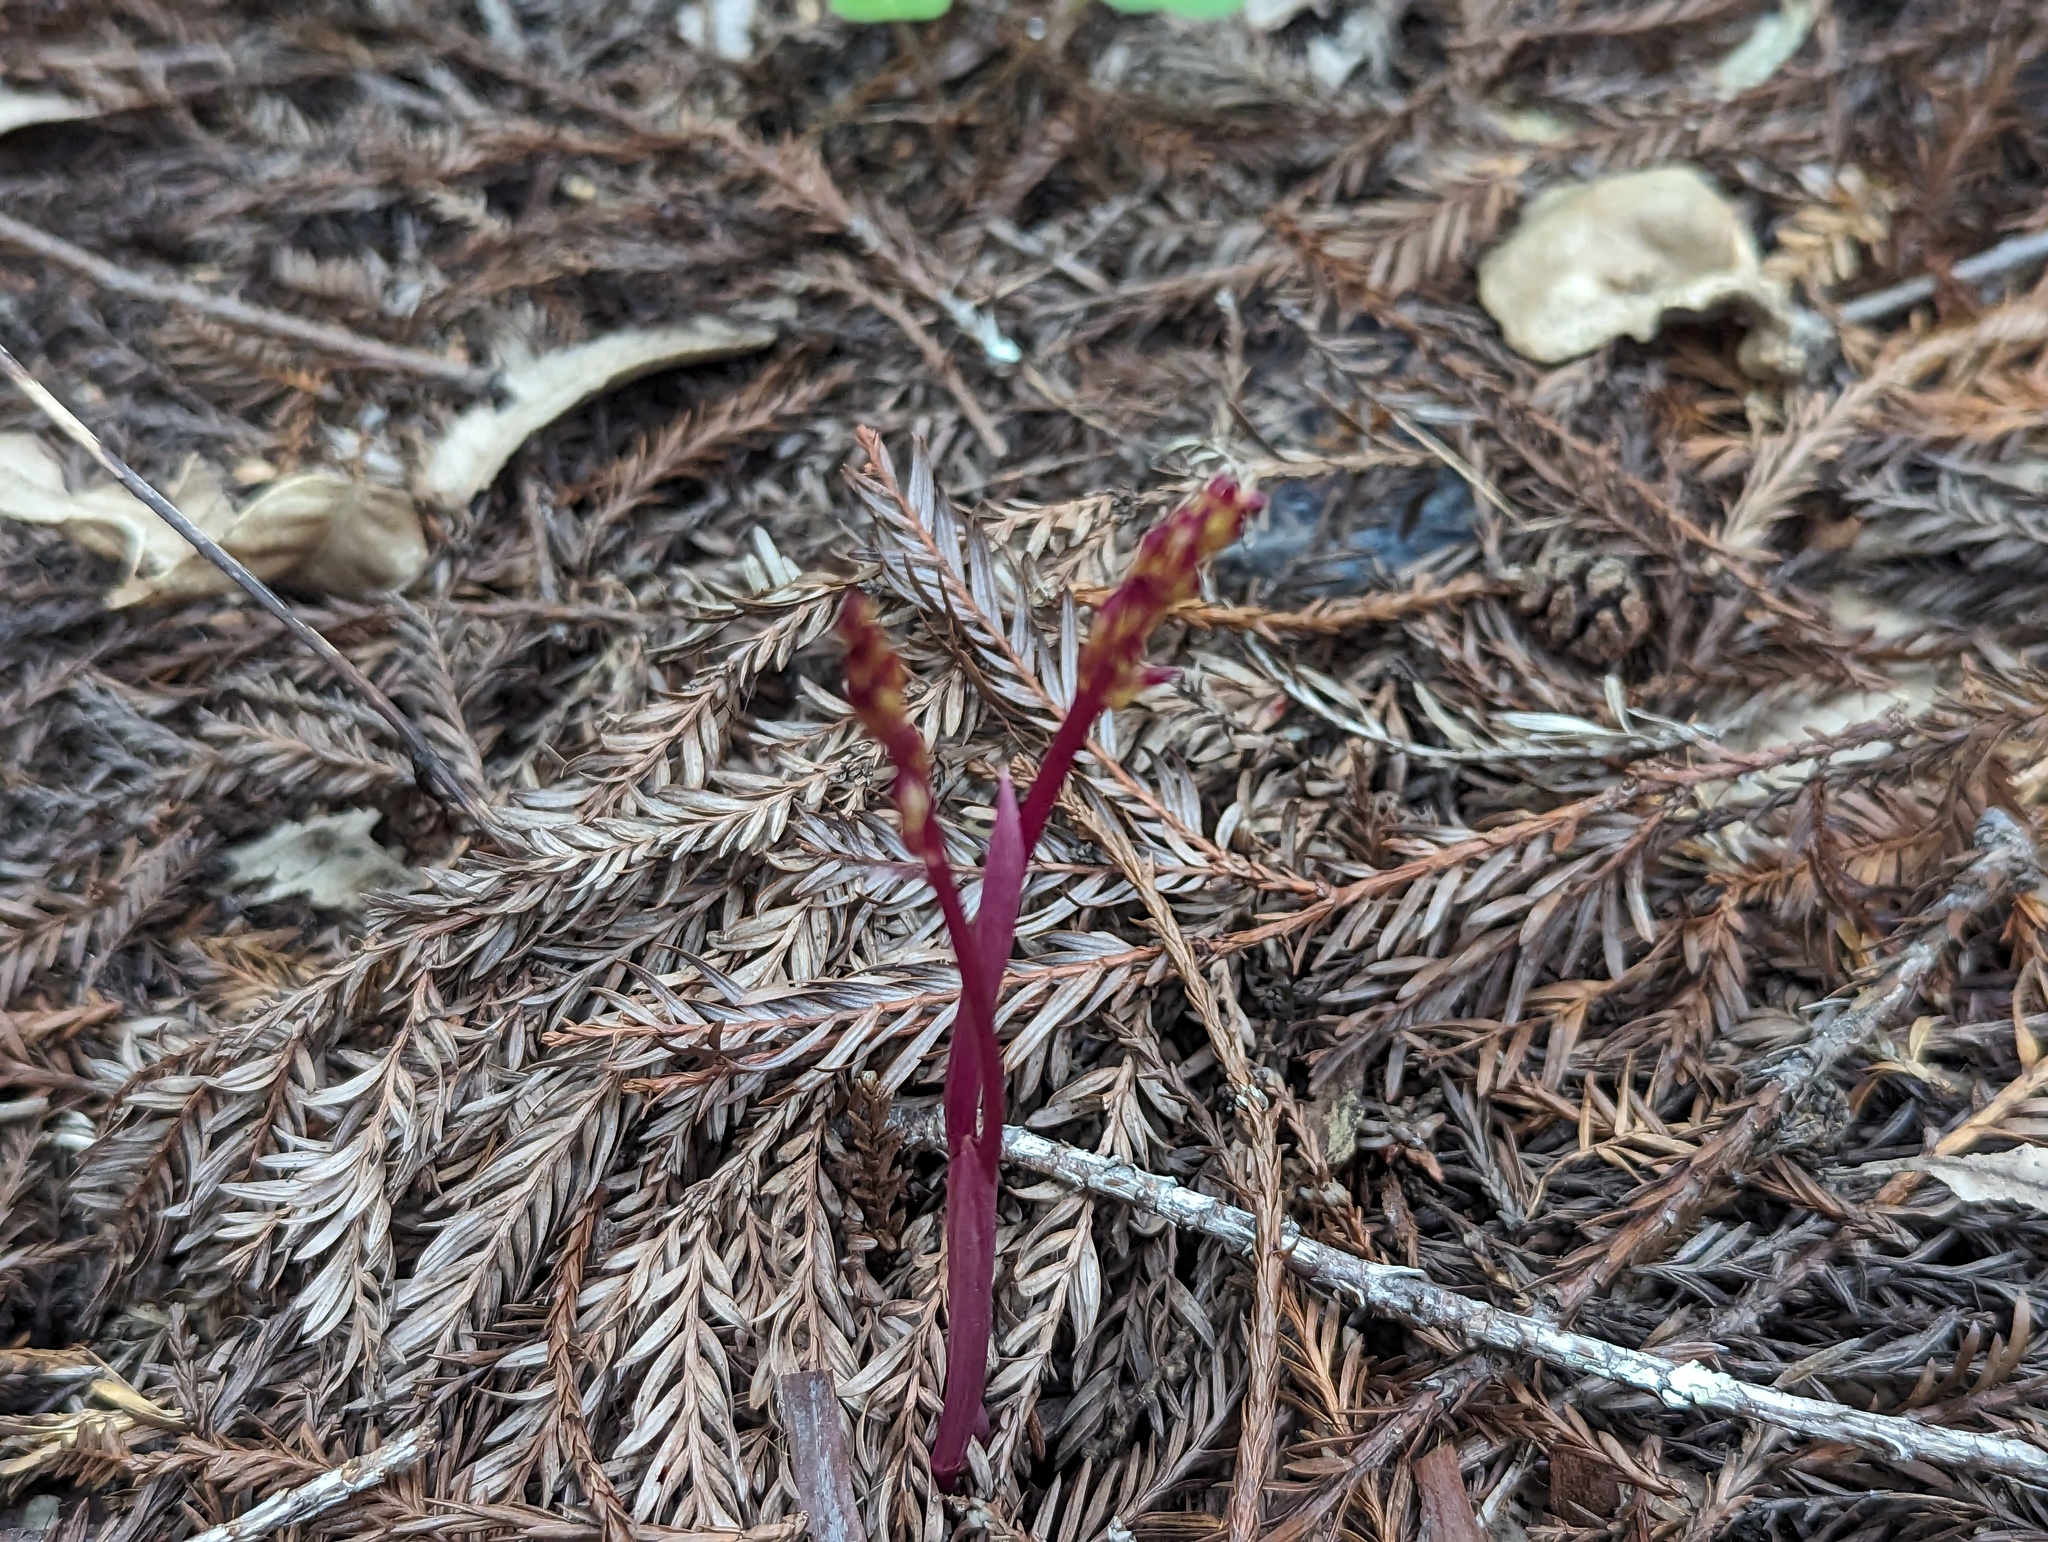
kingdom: Plantae
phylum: Tracheophyta
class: Liliopsida
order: Asparagales
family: Orchidaceae
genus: Corallorhiza
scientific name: Corallorhiza maculata
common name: Spotted coralroot
